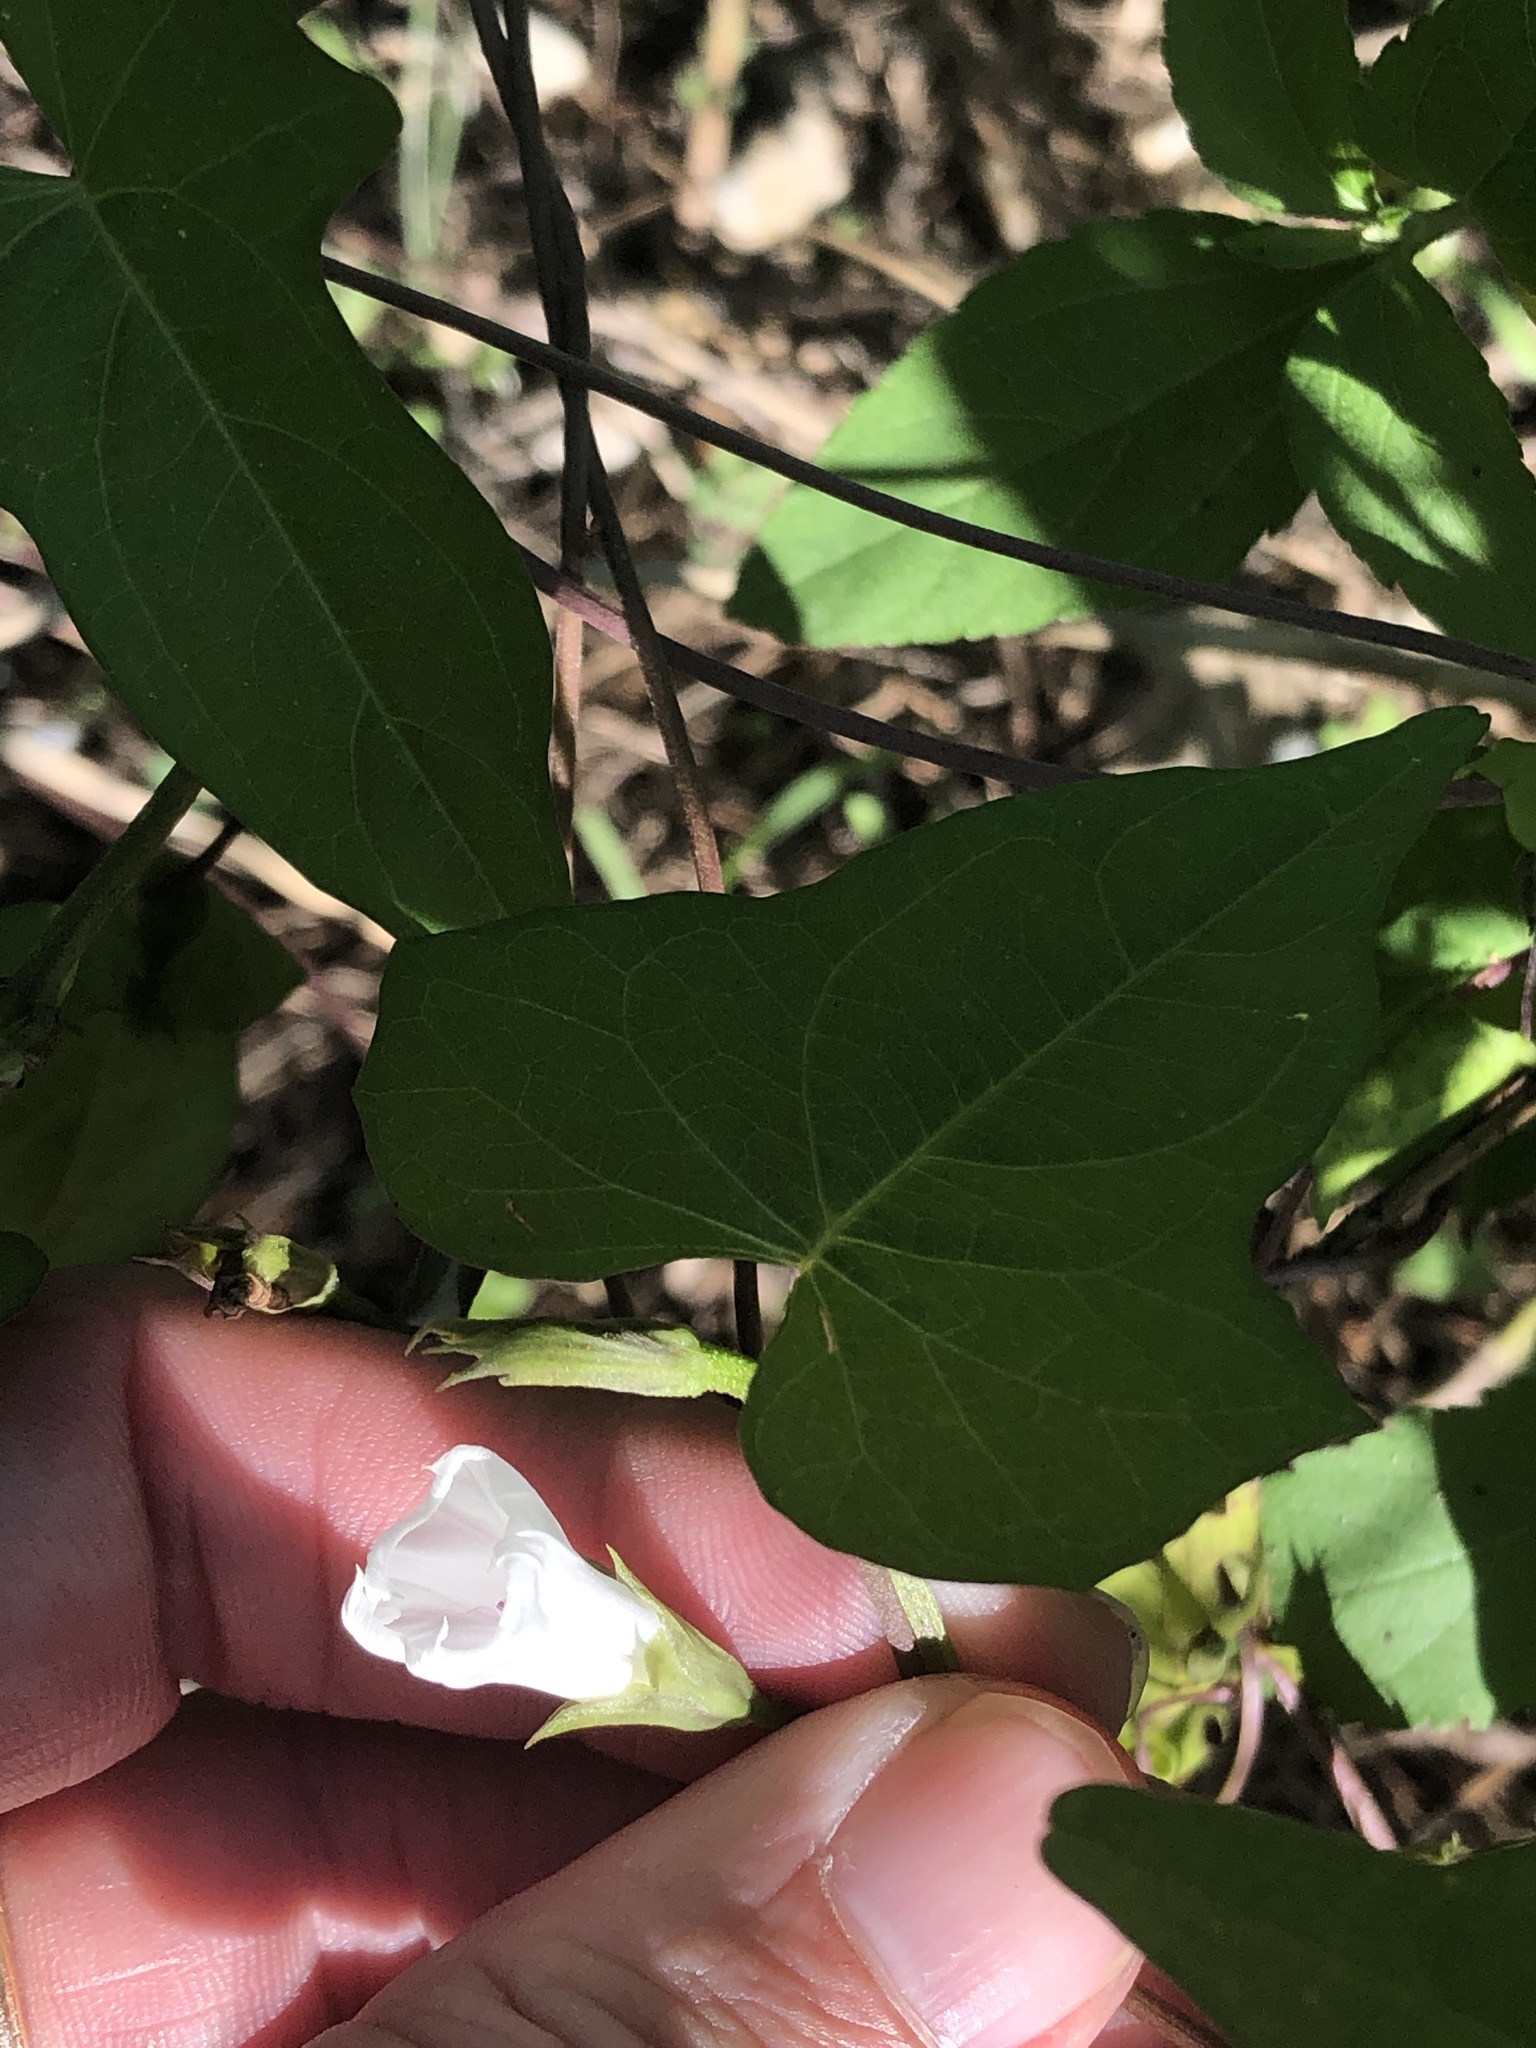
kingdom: Plantae
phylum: Tracheophyta
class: Magnoliopsida
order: Solanales
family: Convolvulaceae
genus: Ipomoea
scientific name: Ipomoea lacunosa
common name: White morning-glory
